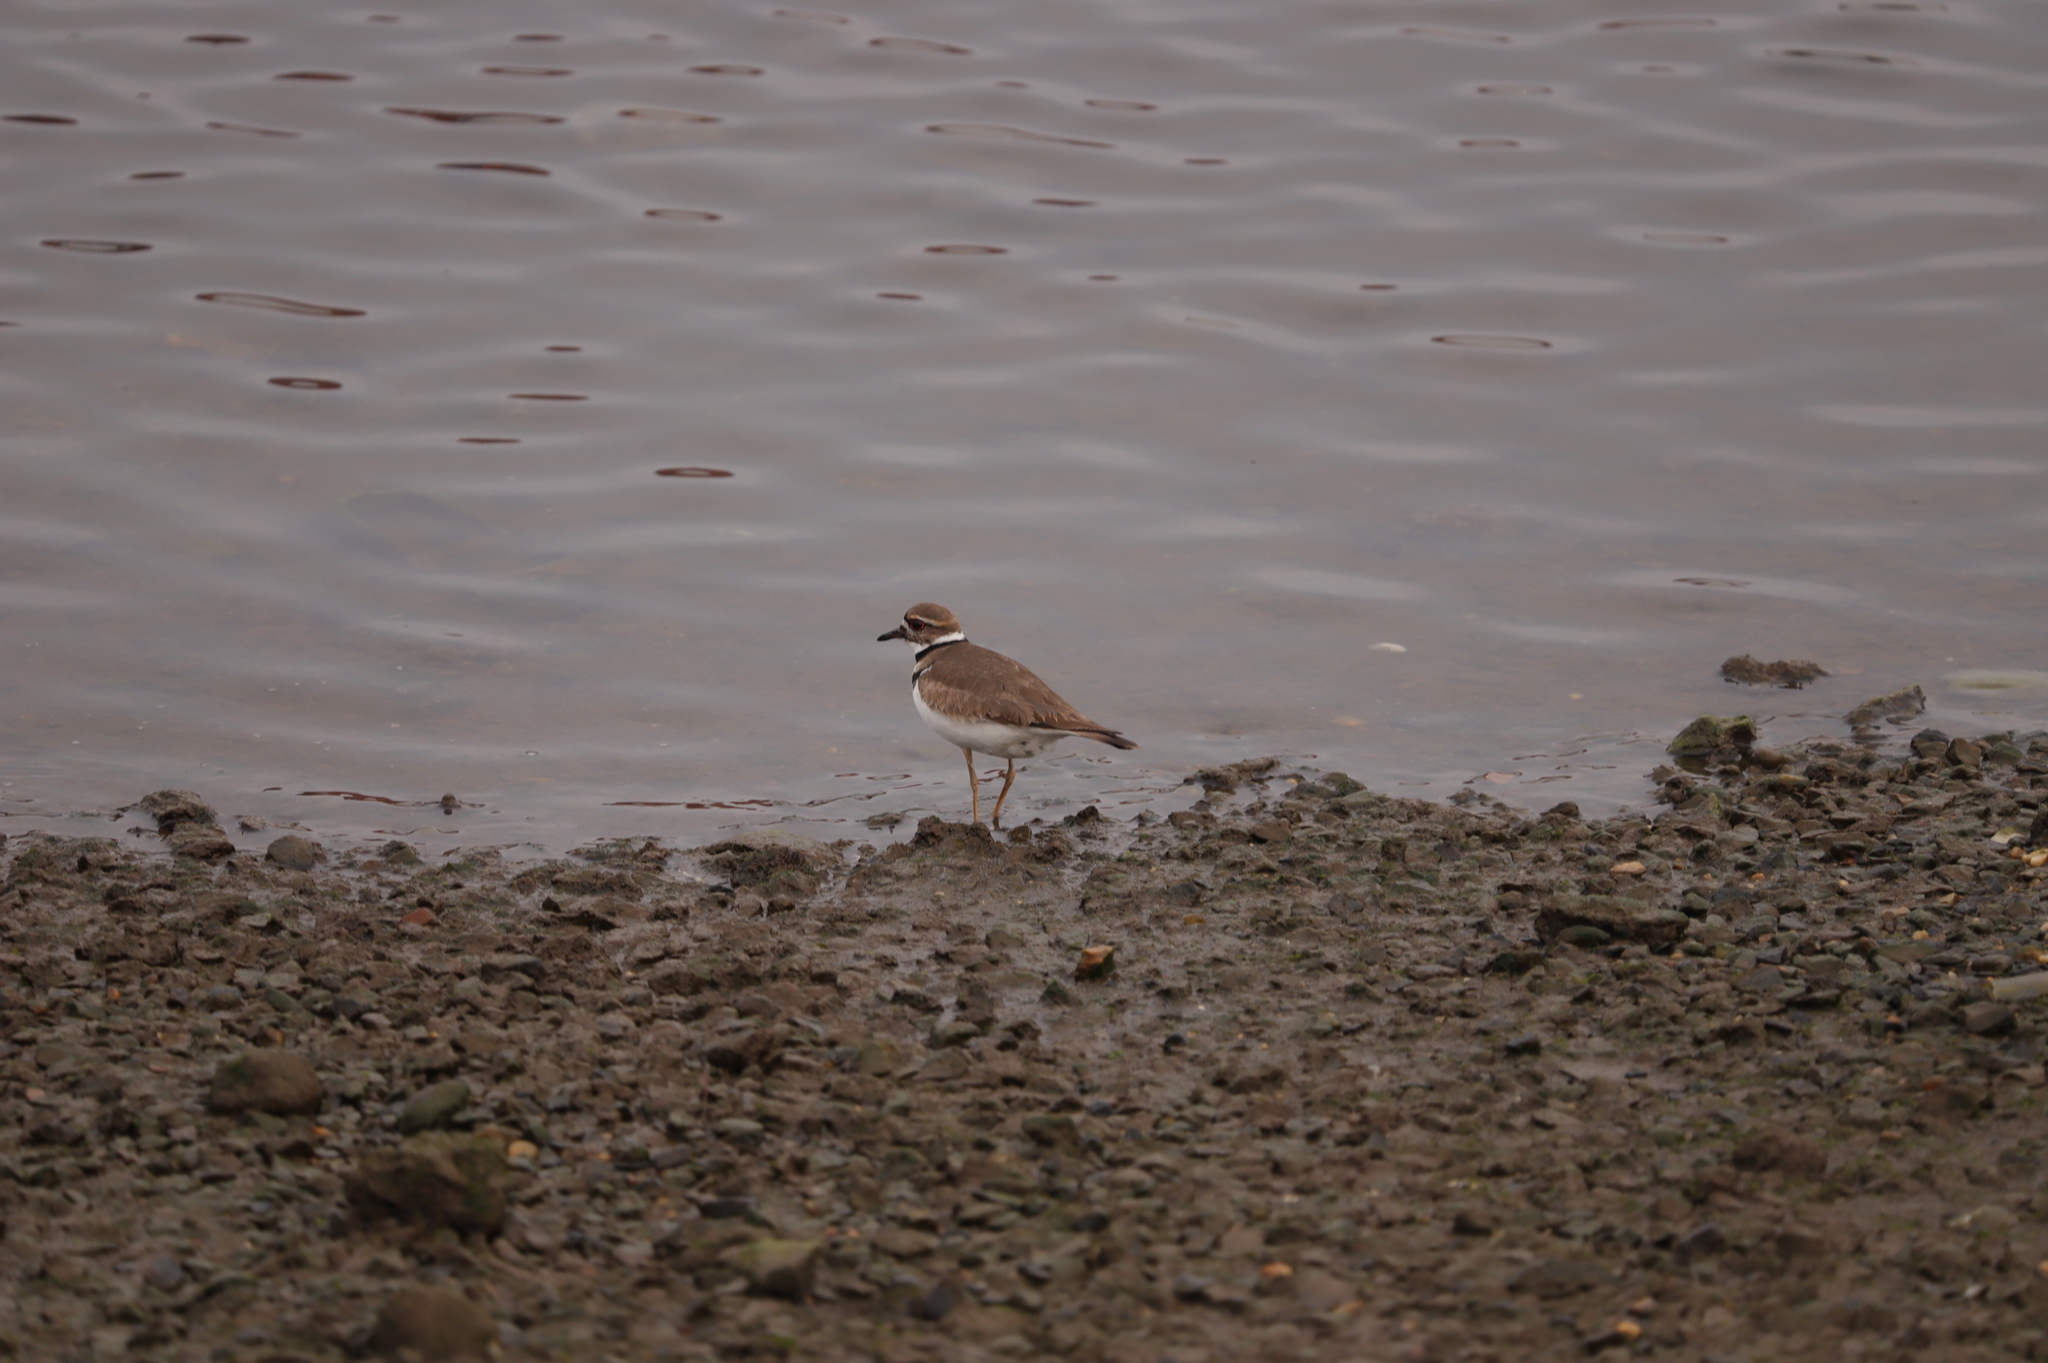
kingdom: Animalia
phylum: Chordata
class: Aves
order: Charadriiformes
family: Charadriidae
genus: Charadrius
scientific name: Charadrius vociferus
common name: Killdeer
